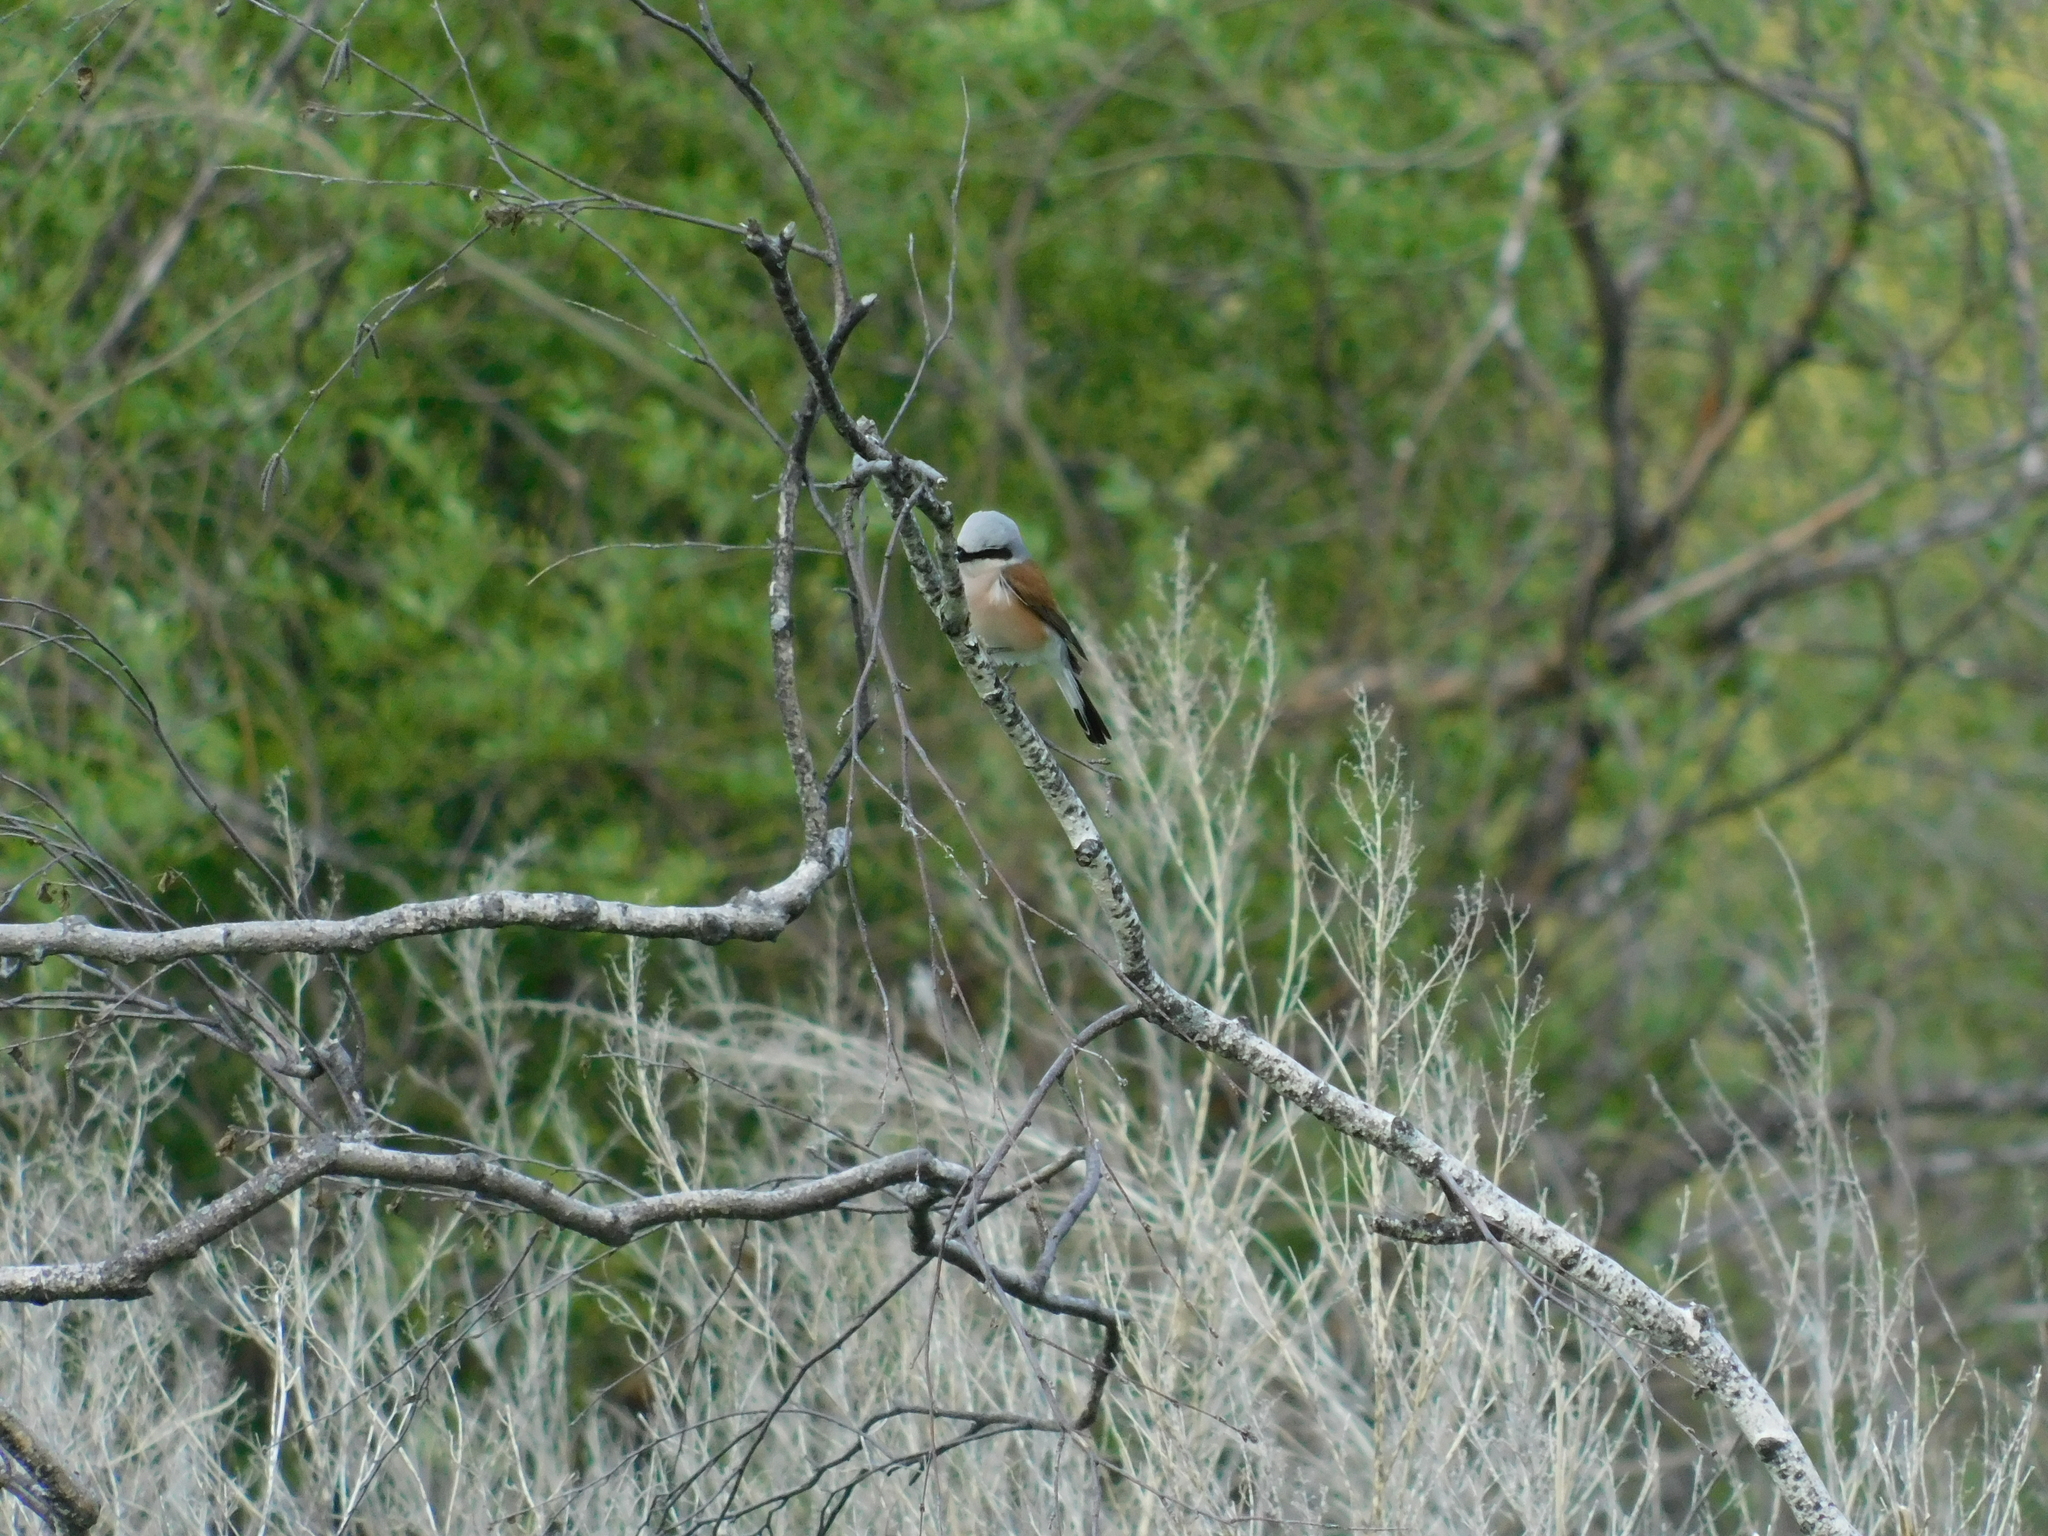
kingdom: Animalia
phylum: Chordata
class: Aves
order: Passeriformes
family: Laniidae
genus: Lanius
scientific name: Lanius collurio
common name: Red-backed shrike
